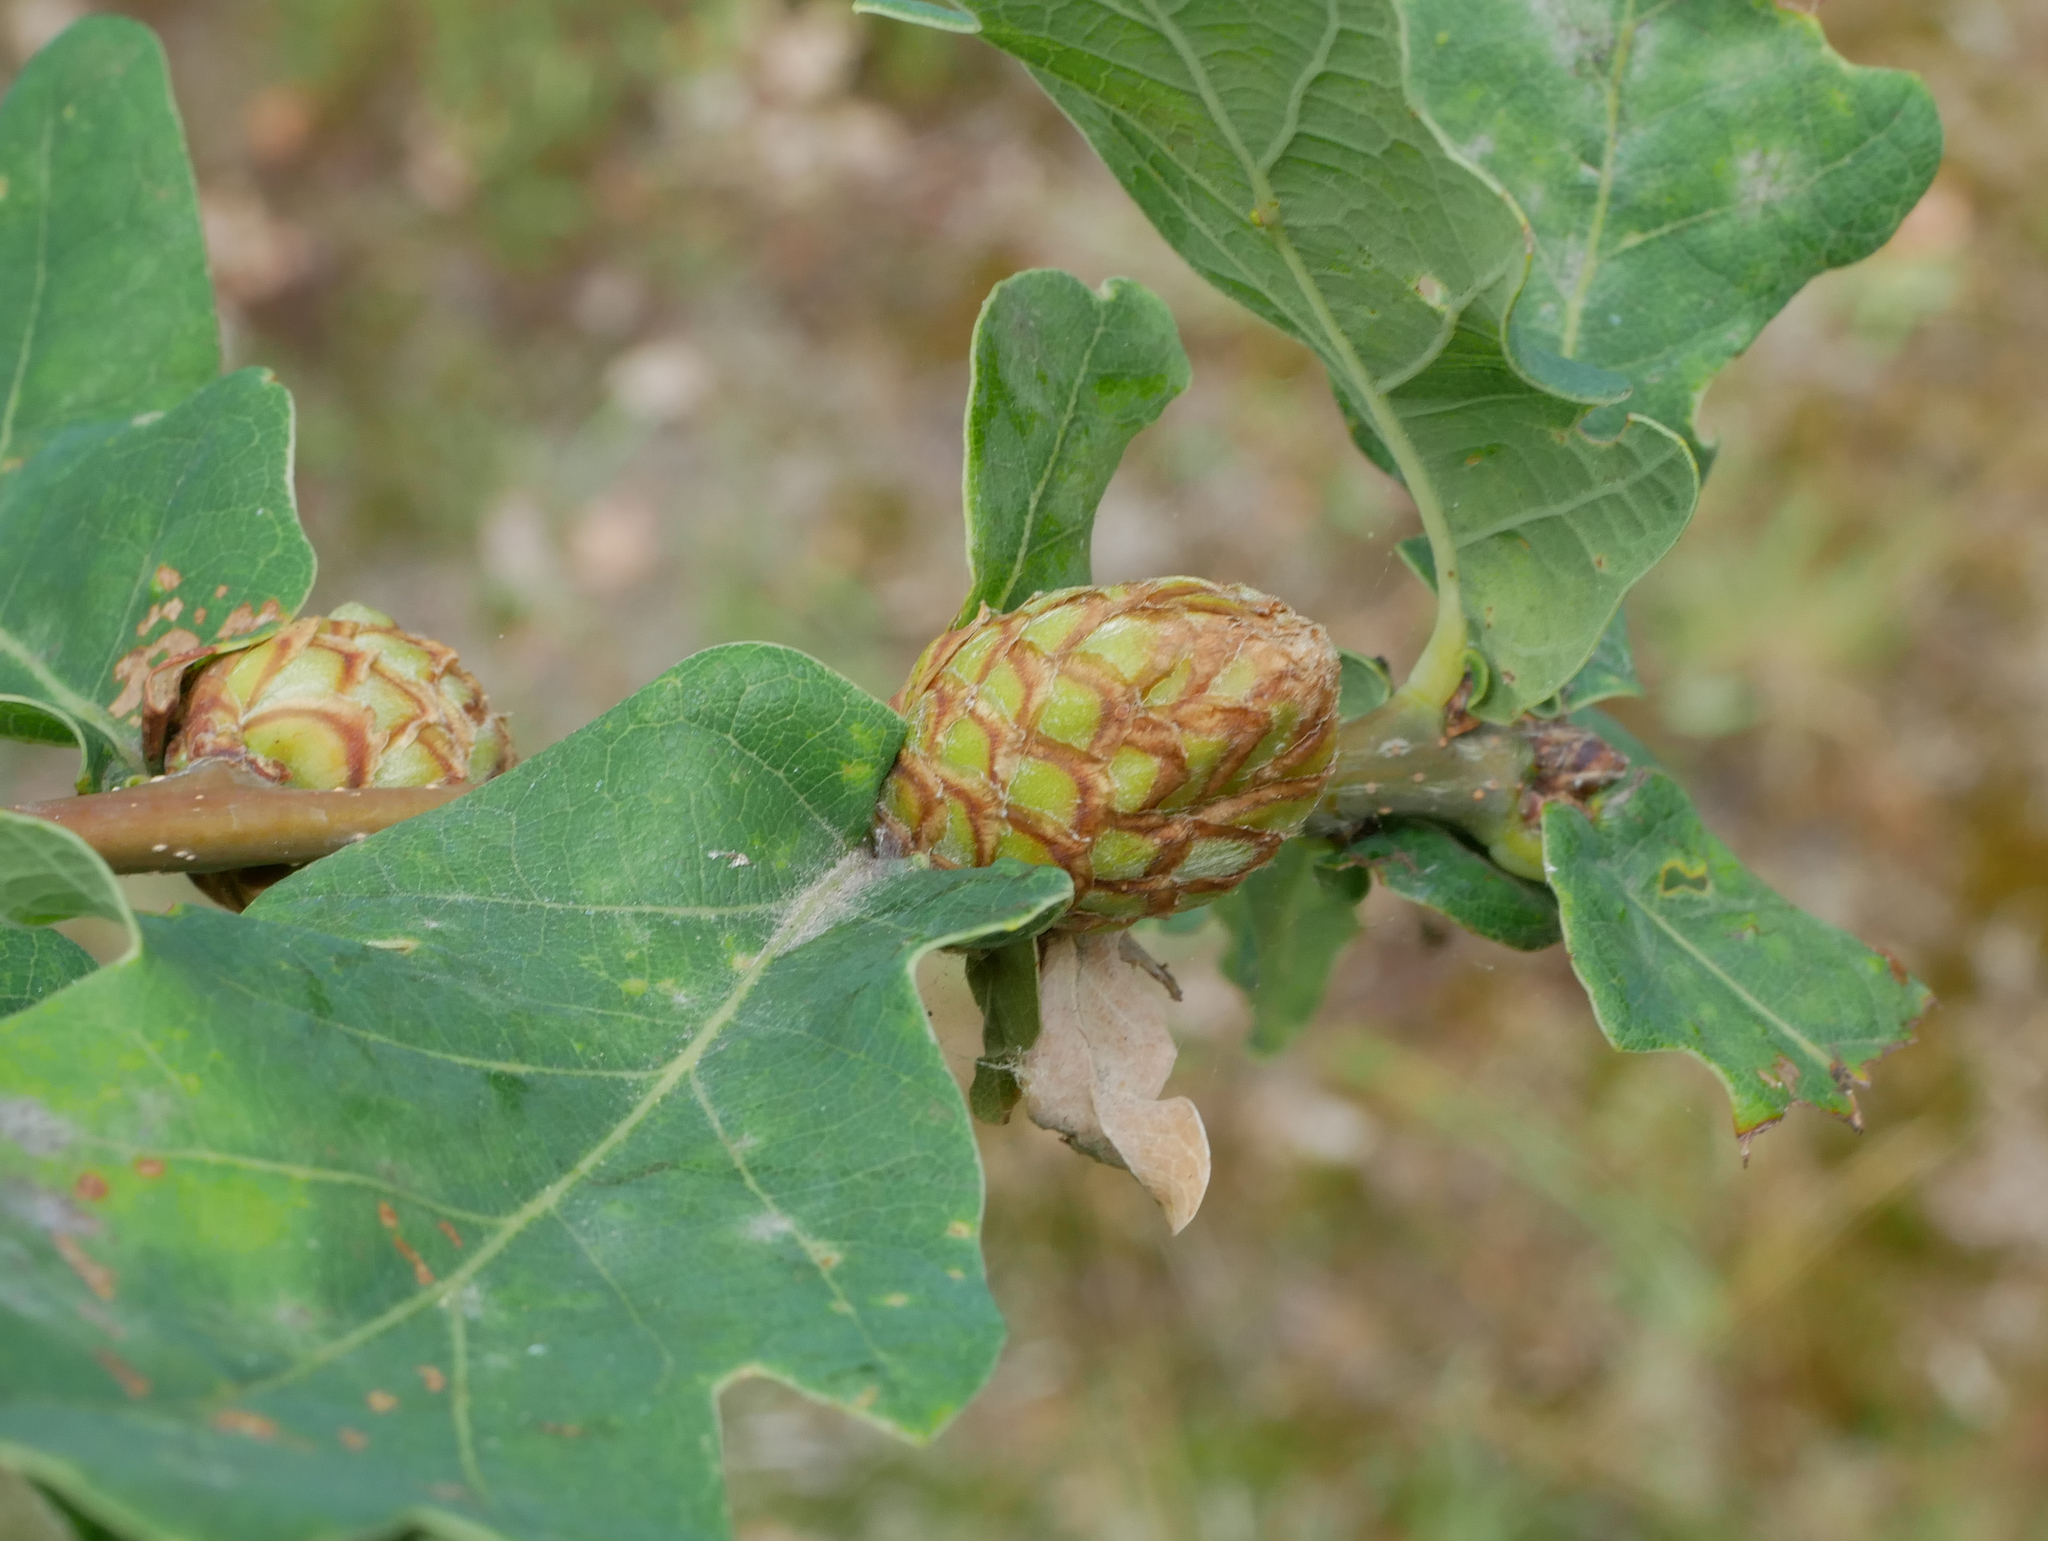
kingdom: Animalia
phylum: Arthropoda
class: Insecta
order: Hymenoptera
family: Cynipidae
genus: Andricus
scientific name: Andricus foecundatrix
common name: Artichoke gall
